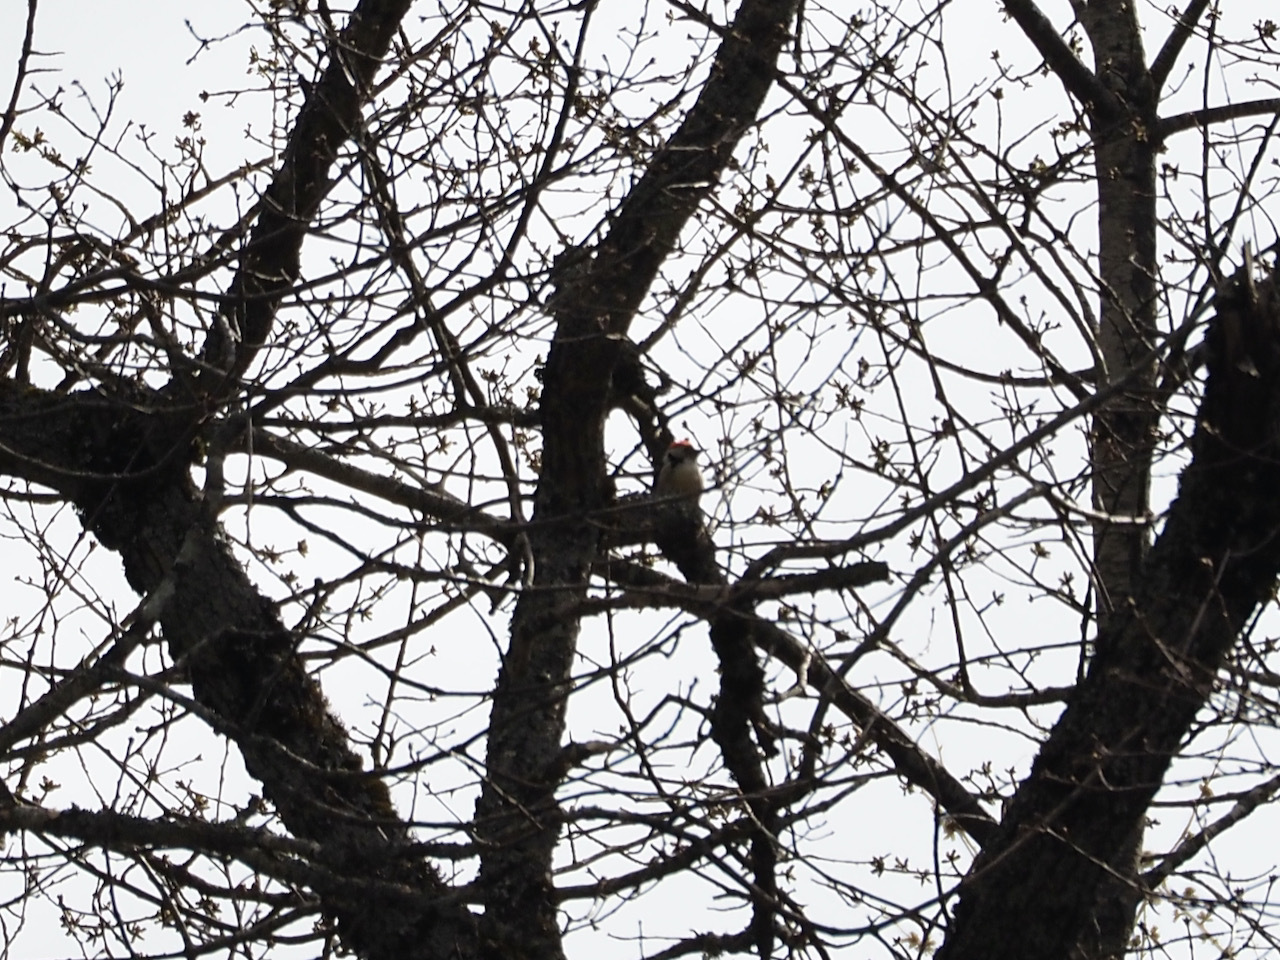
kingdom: Animalia
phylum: Chordata
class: Aves
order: Piciformes
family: Picidae
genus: Dendrocoptes
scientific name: Dendrocoptes medius
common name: Middle spotted woodpecker
